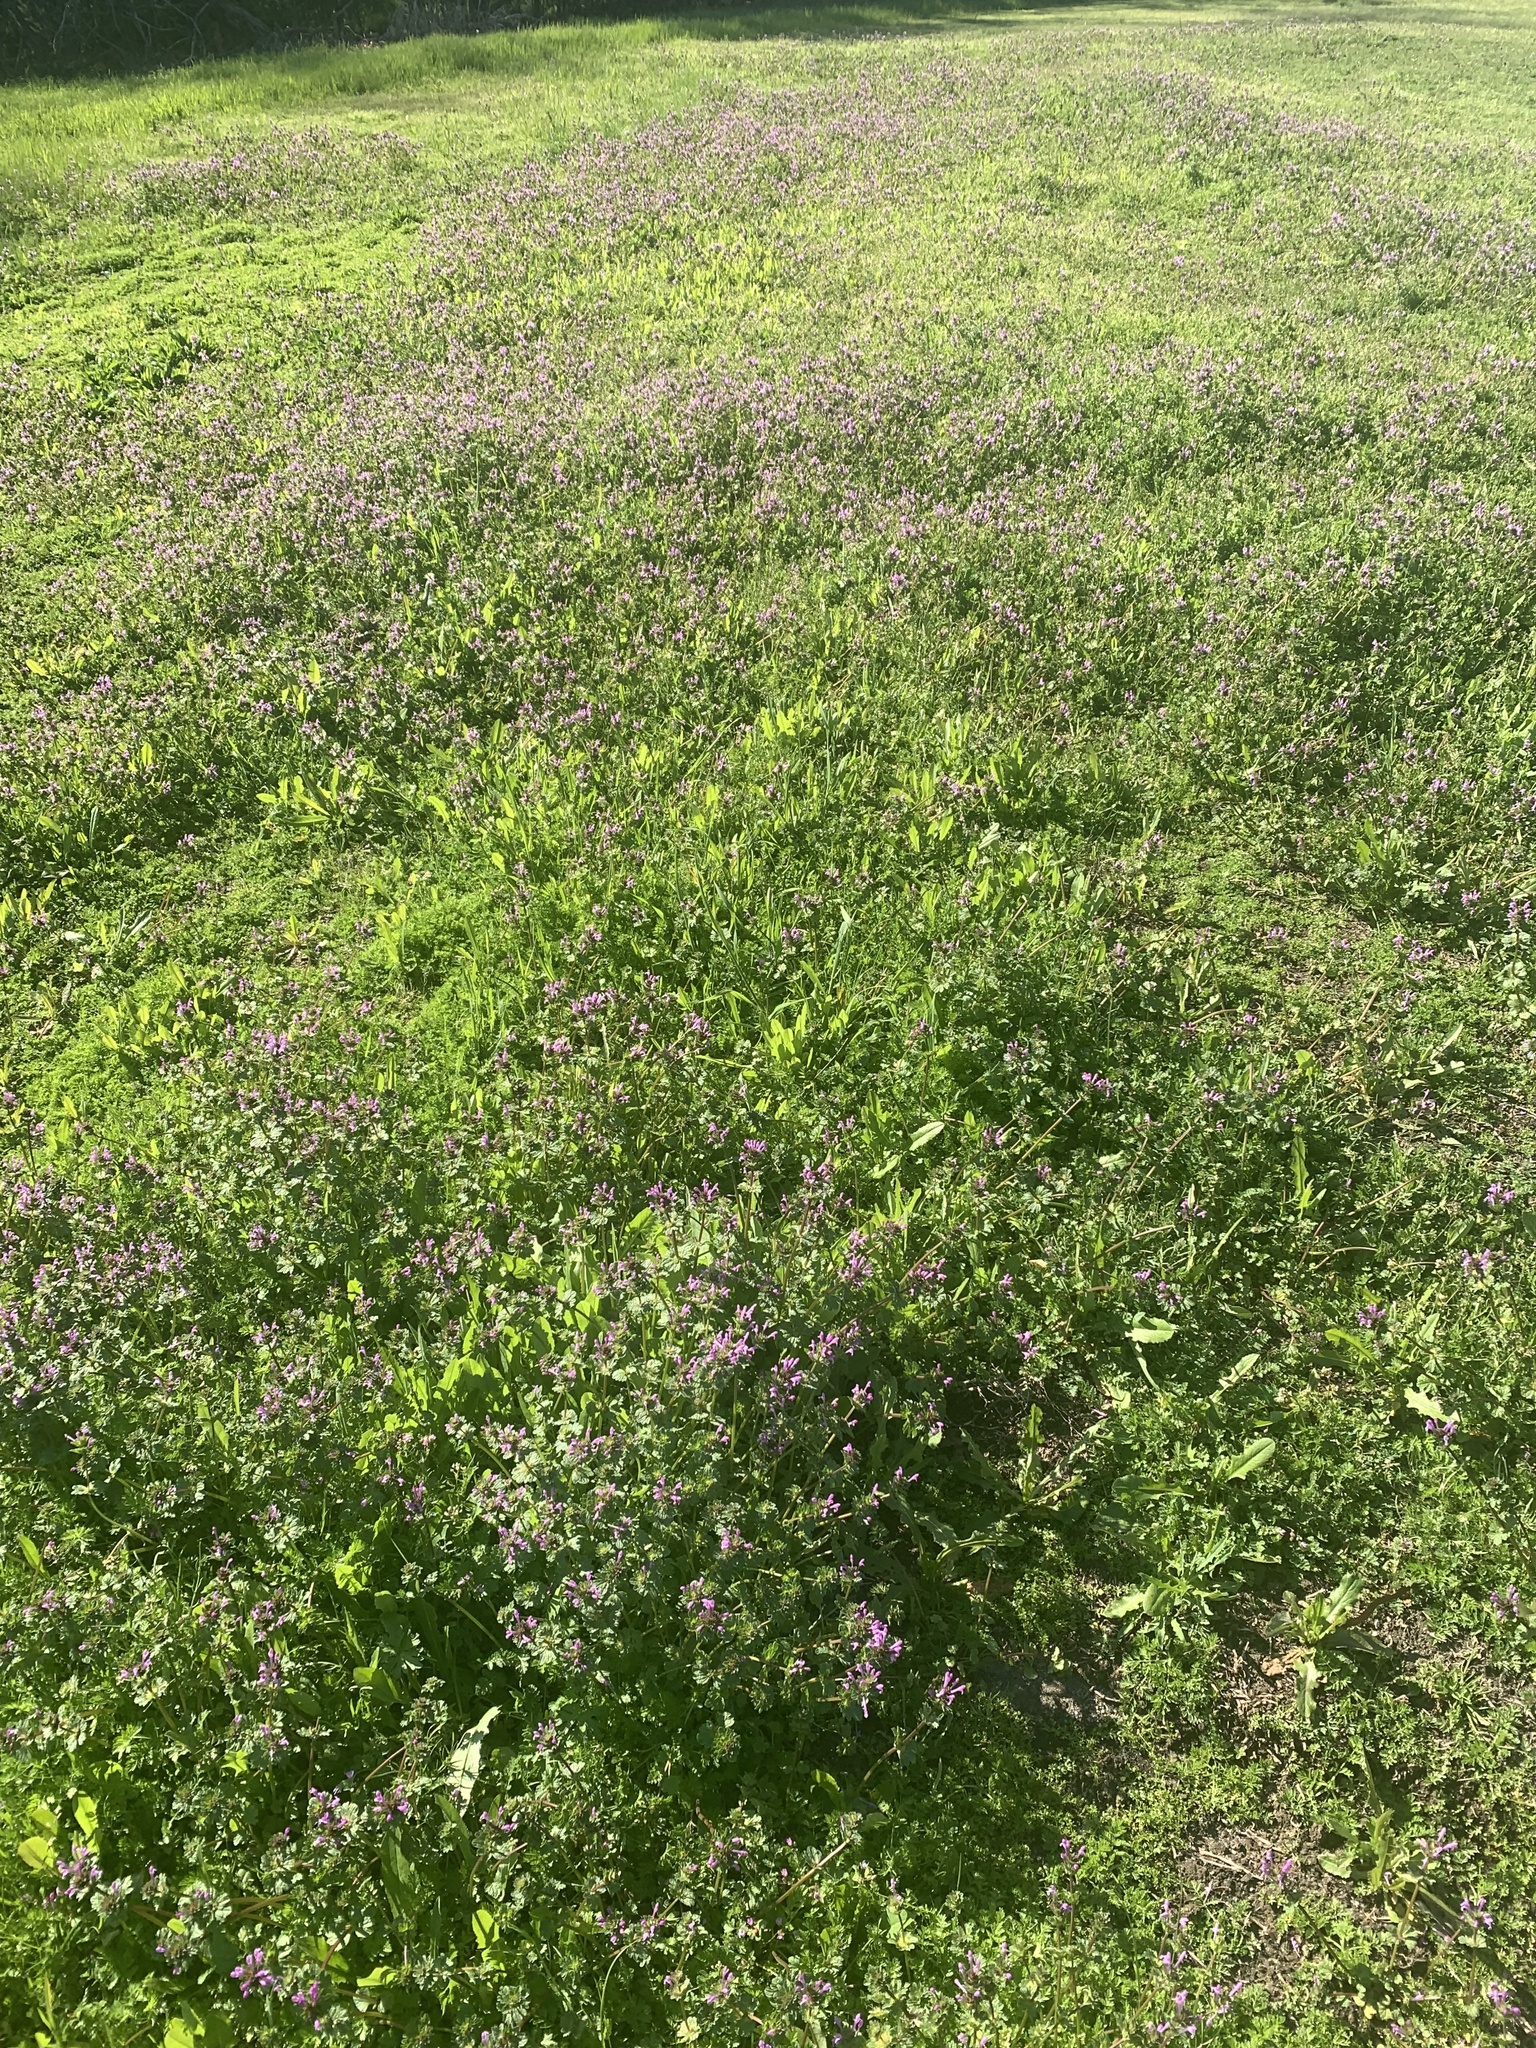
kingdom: Plantae
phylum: Tracheophyta
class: Magnoliopsida
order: Lamiales
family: Lamiaceae
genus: Lamium
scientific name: Lamium amplexicaule
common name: Henbit dead-nettle
